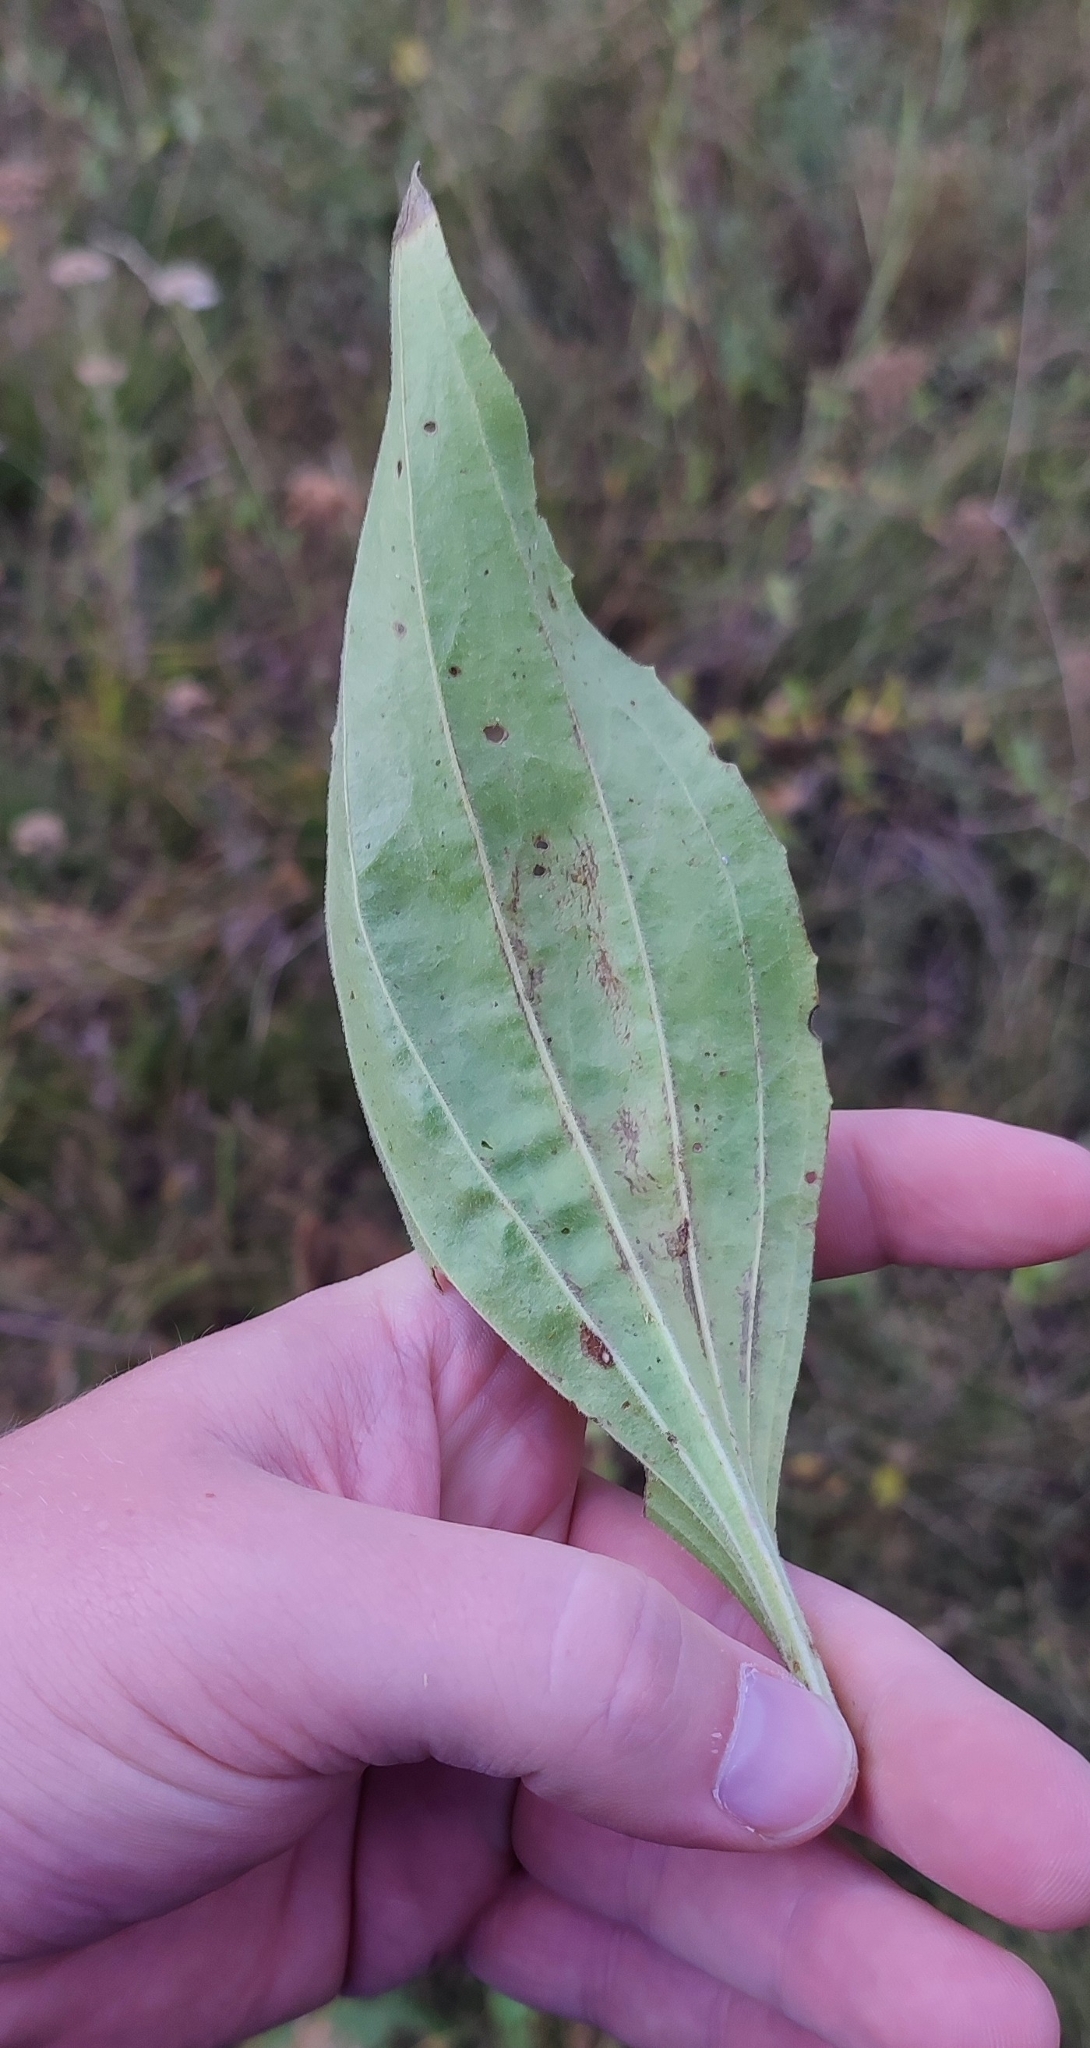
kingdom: Plantae
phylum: Tracheophyta
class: Magnoliopsida
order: Lamiales
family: Plantaginaceae
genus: Plantago
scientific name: Plantago urvillei
